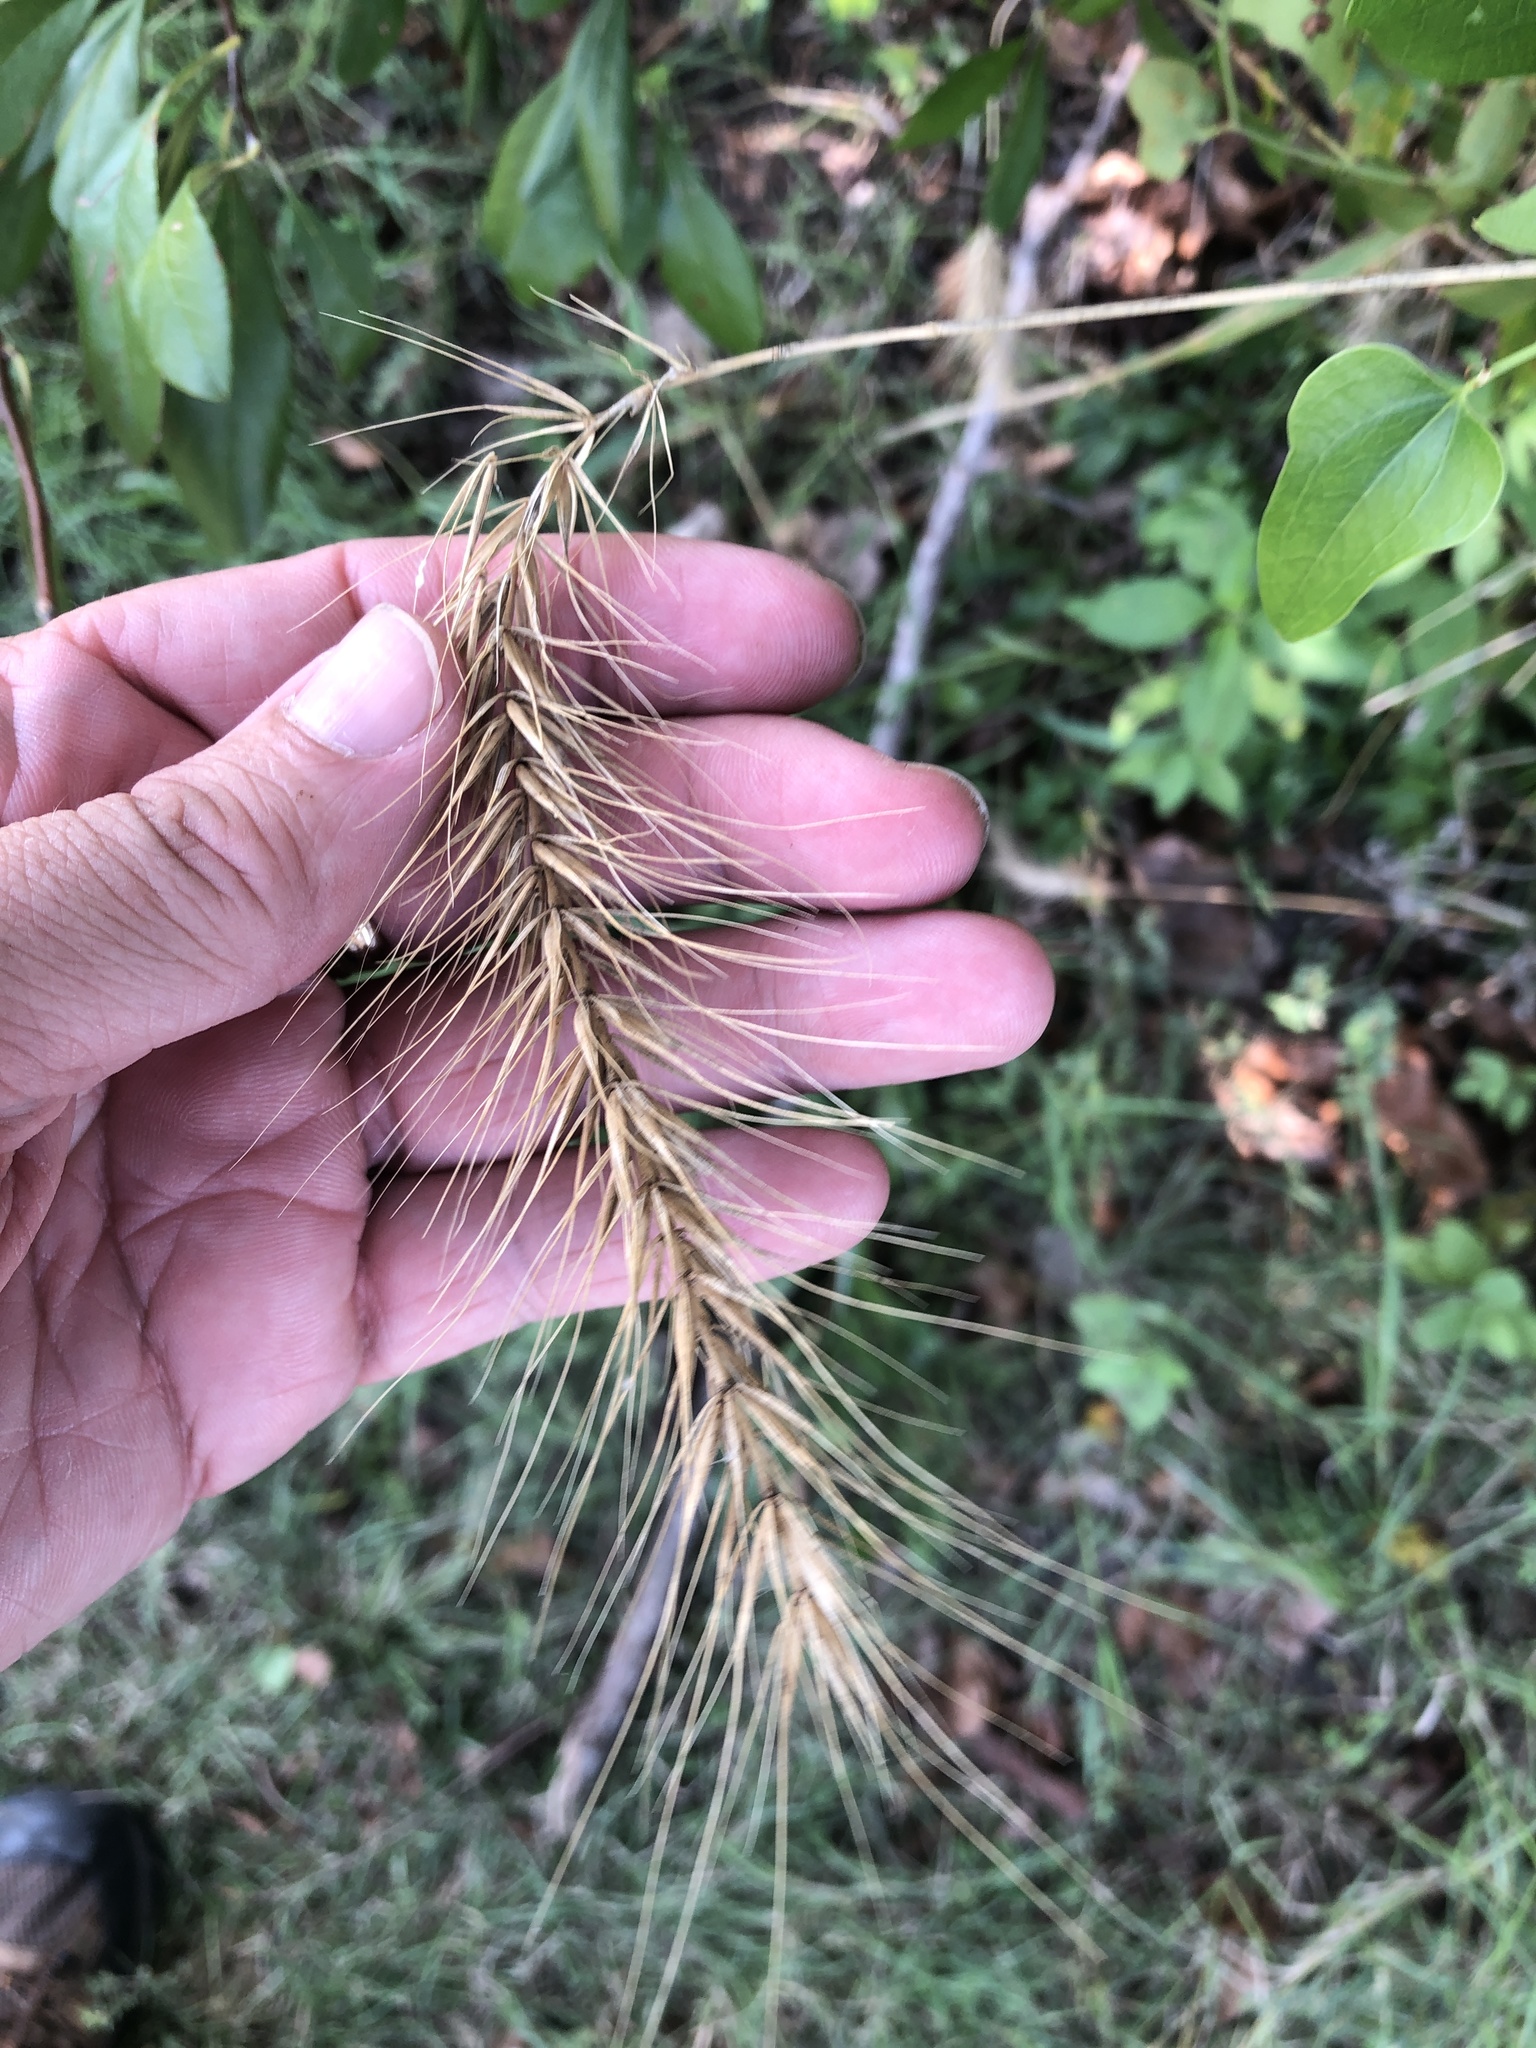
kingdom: Plantae
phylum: Tracheophyta
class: Liliopsida
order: Poales
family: Poaceae
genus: Elymus
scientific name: Elymus canadensis
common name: Canada wild rye
